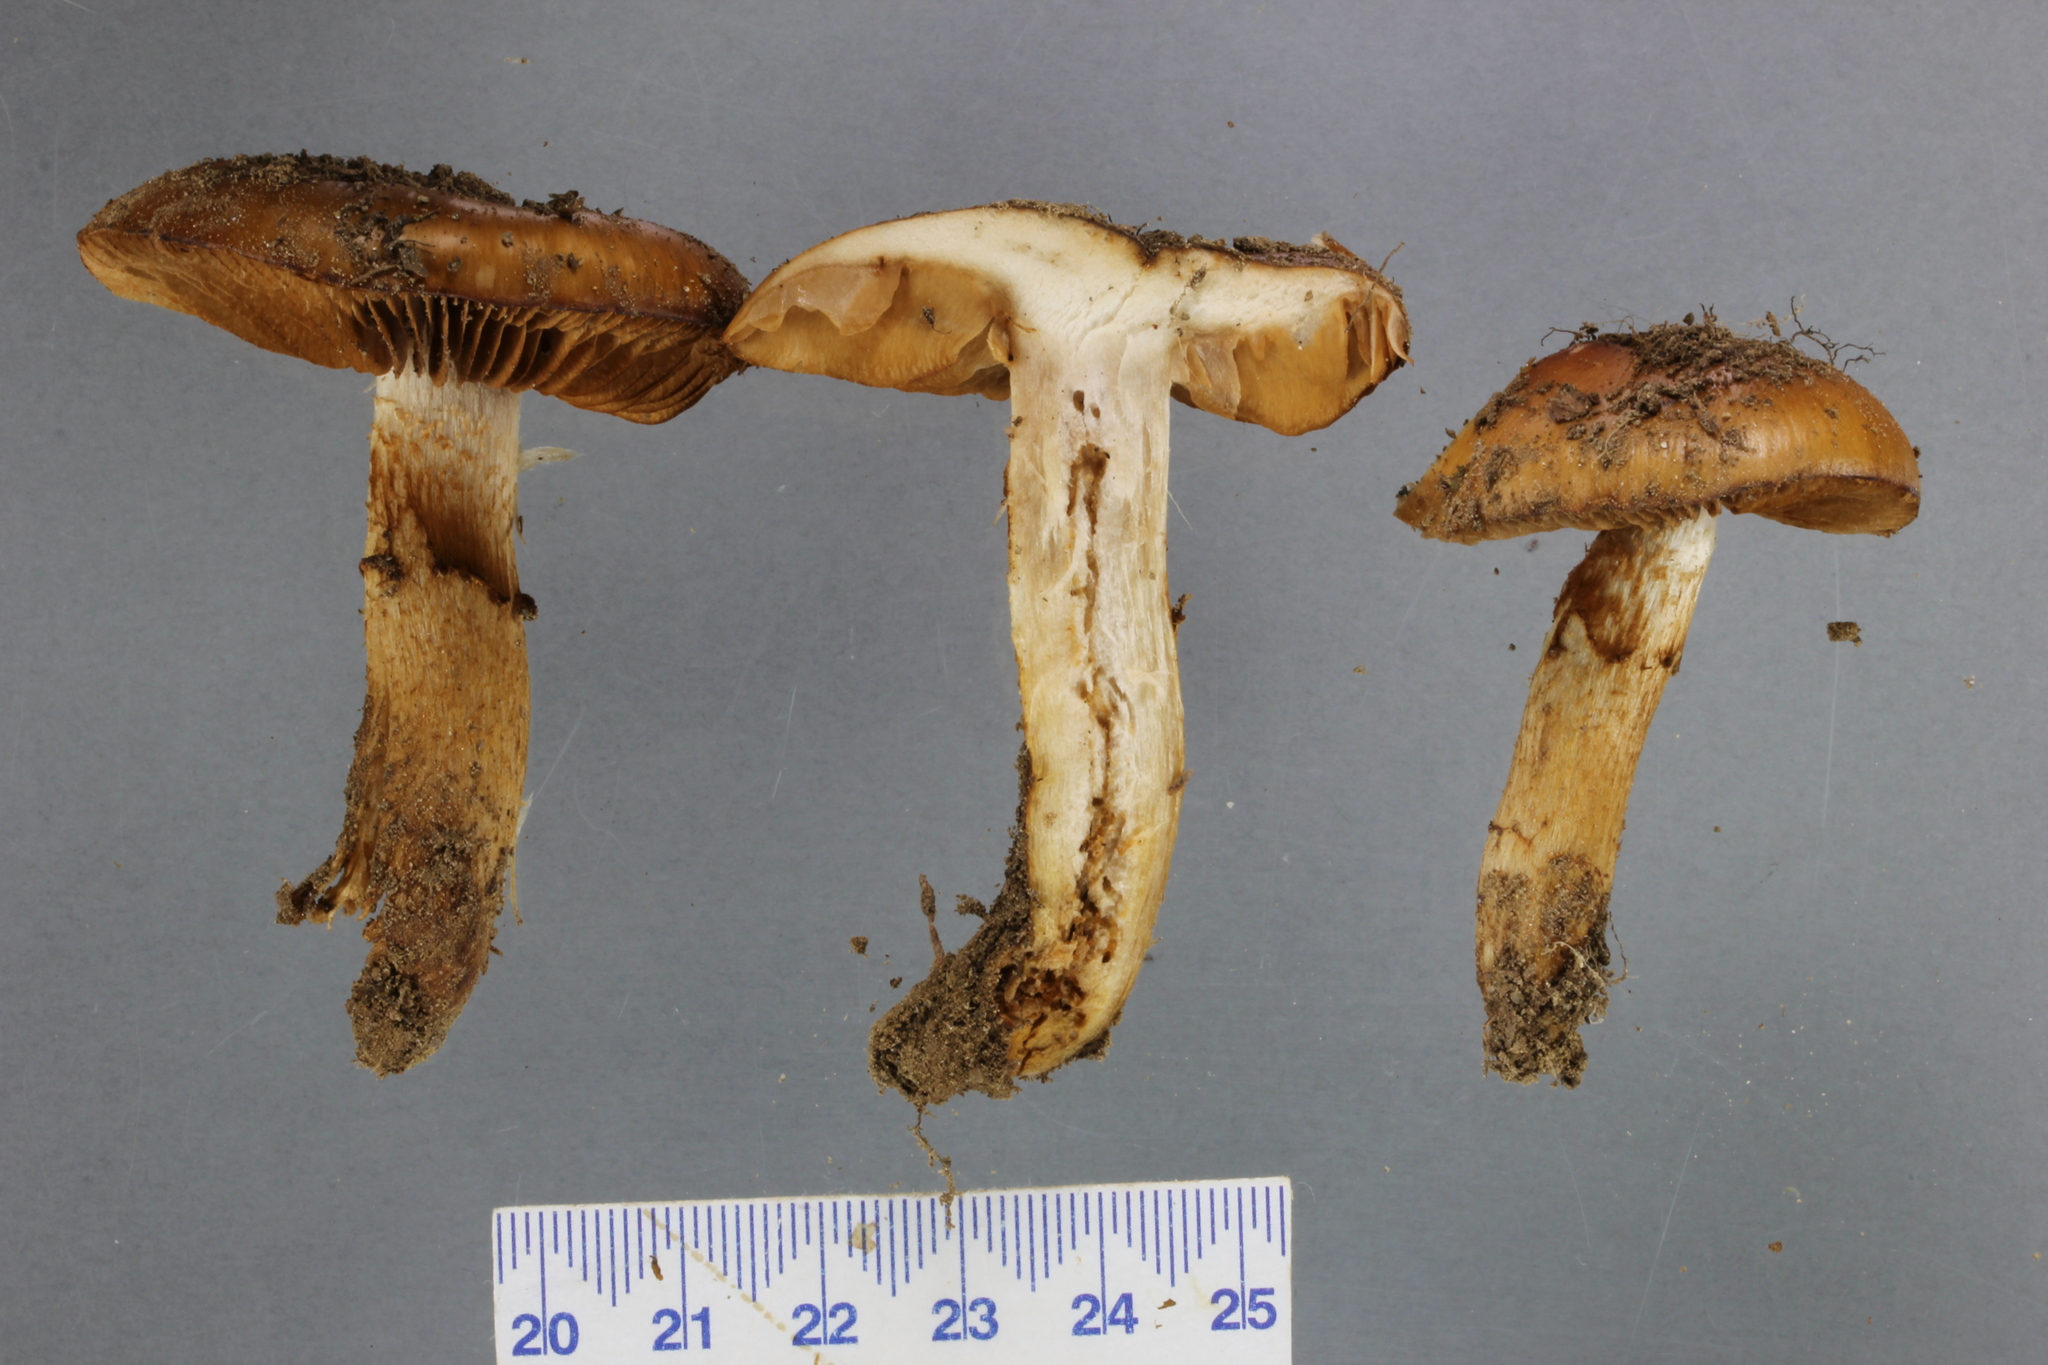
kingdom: Fungi
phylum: Basidiomycota
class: Agaricomycetes
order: Agaricales
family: Cortinariaceae
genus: Cortinarius
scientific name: Cortinarius naphthalinus
